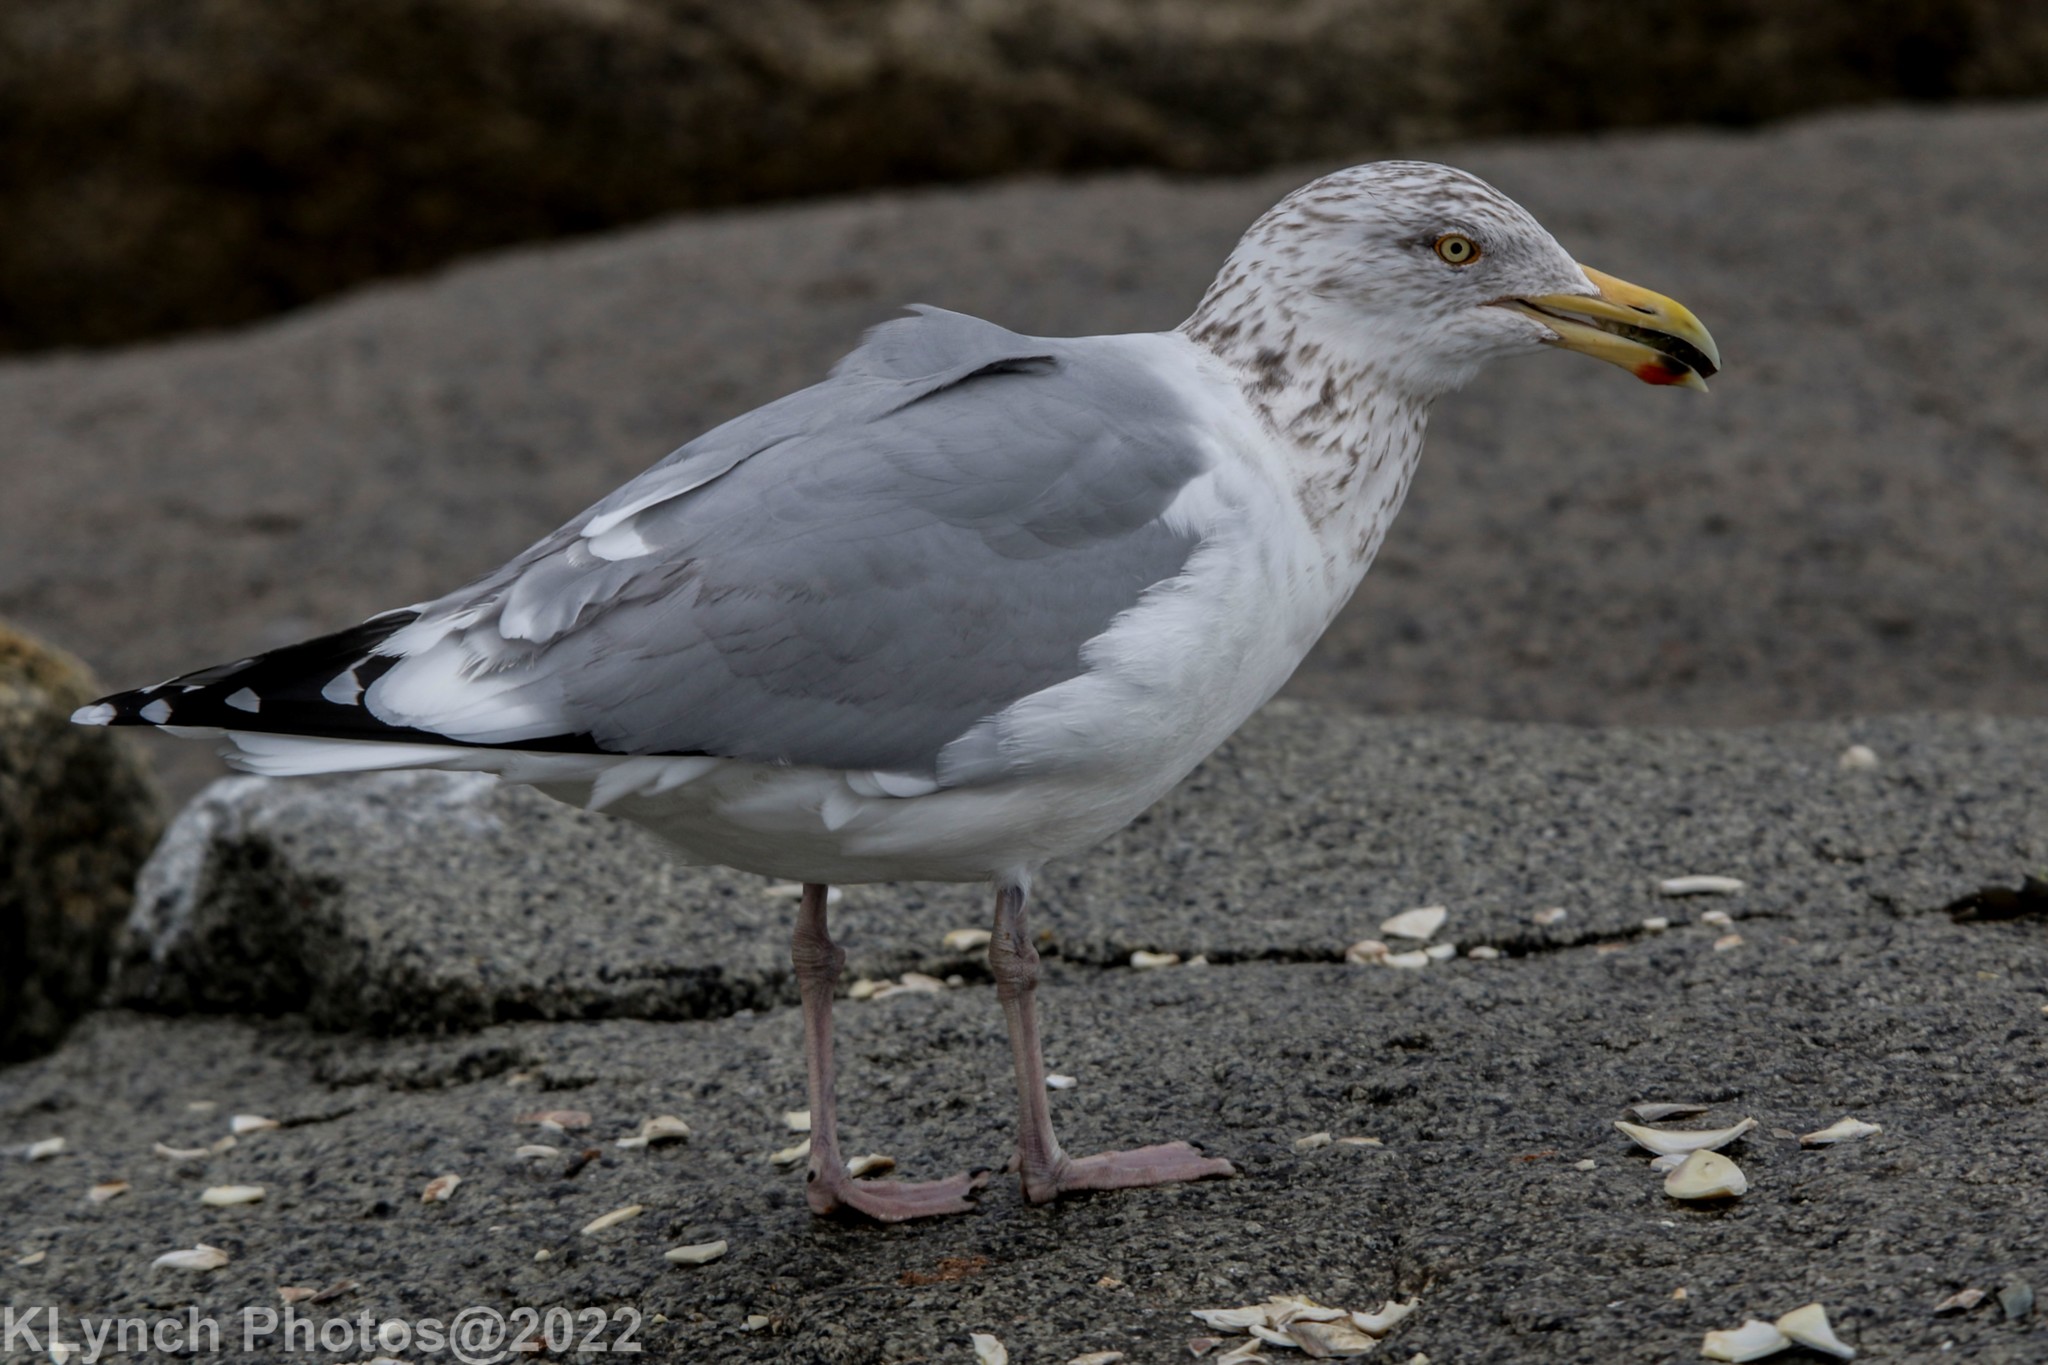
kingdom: Animalia
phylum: Chordata
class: Aves
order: Charadriiformes
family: Laridae
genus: Larus
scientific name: Larus argentatus
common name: Herring gull
